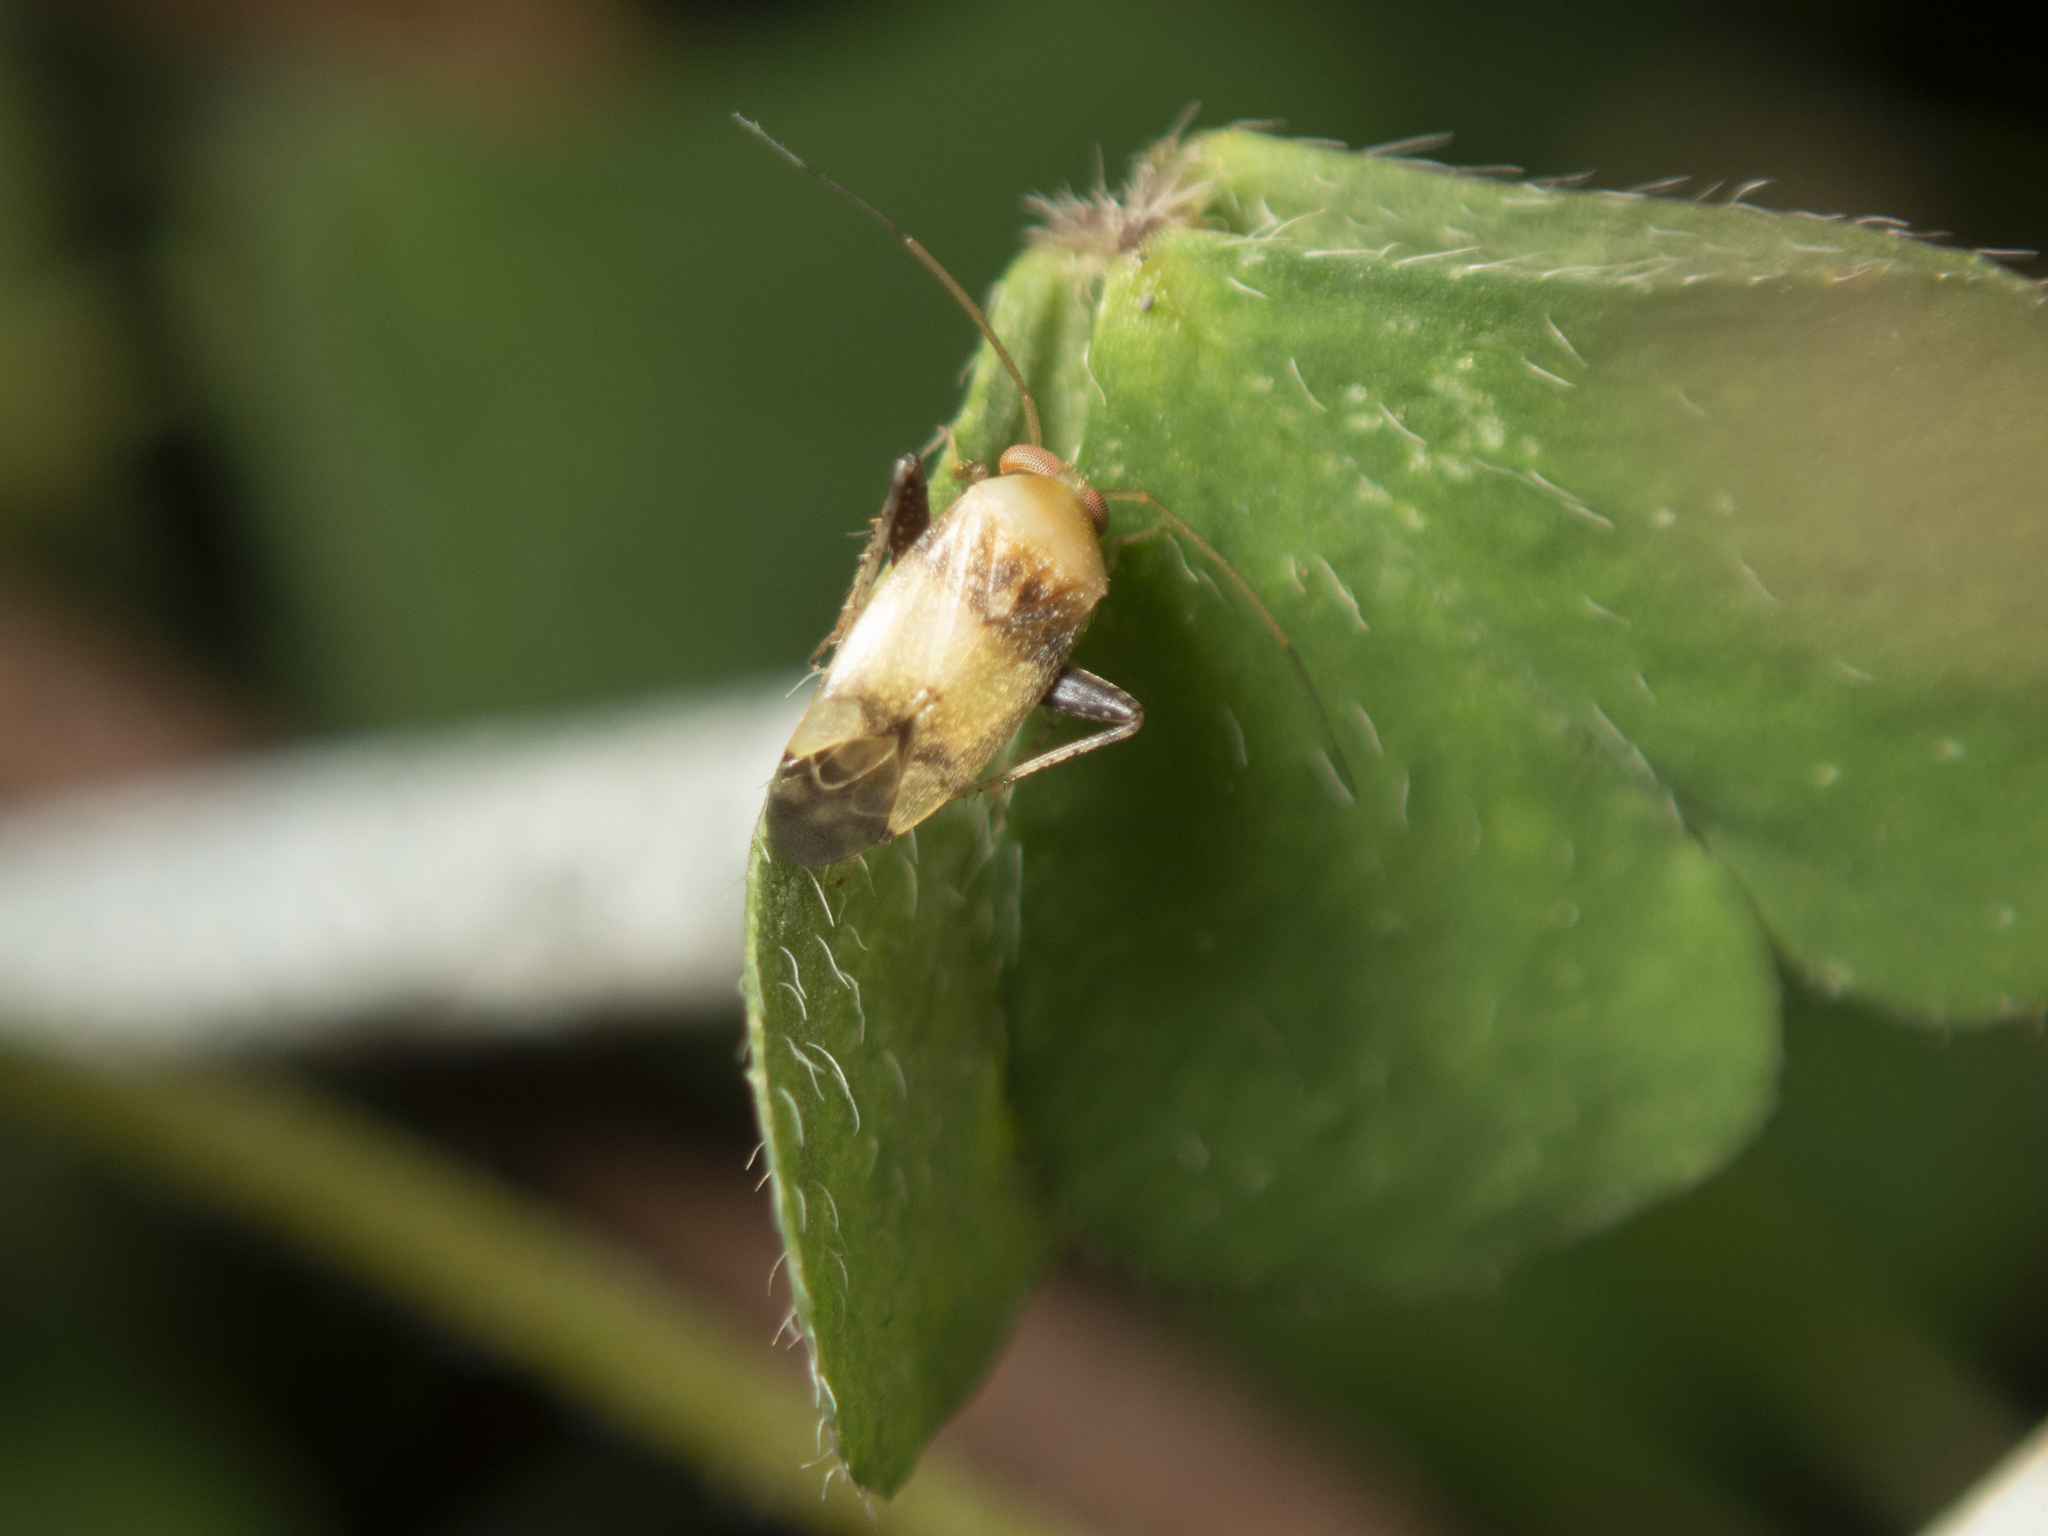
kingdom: Animalia
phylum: Arthropoda
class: Insecta
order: Hemiptera
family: Miridae
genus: Anthophilolygus
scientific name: Anthophilolygus bakeri
